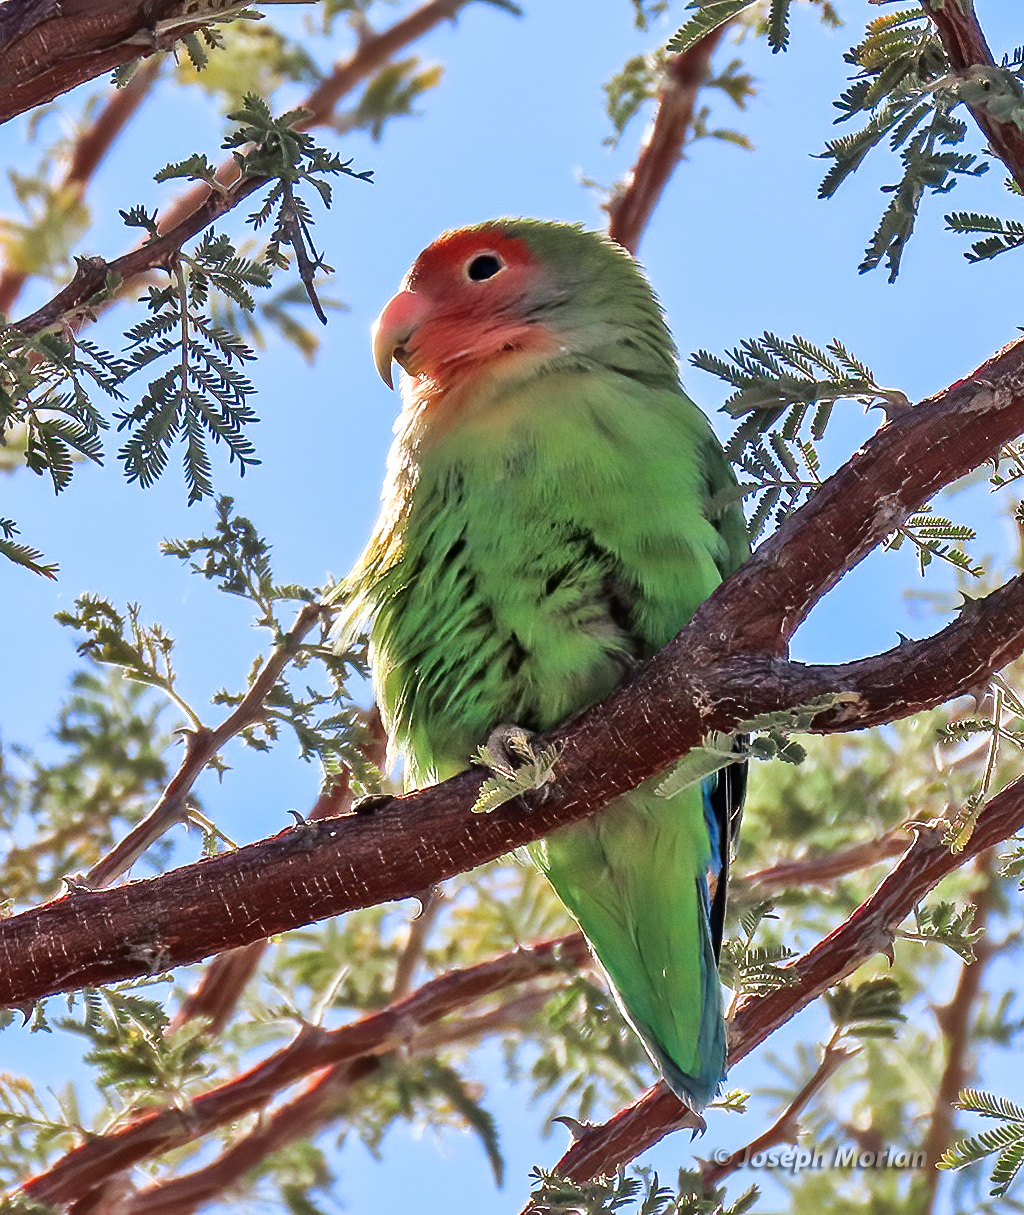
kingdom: Animalia
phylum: Chordata
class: Aves
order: Psittaciformes
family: Psittacidae
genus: Agapornis
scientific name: Agapornis roseicollis
